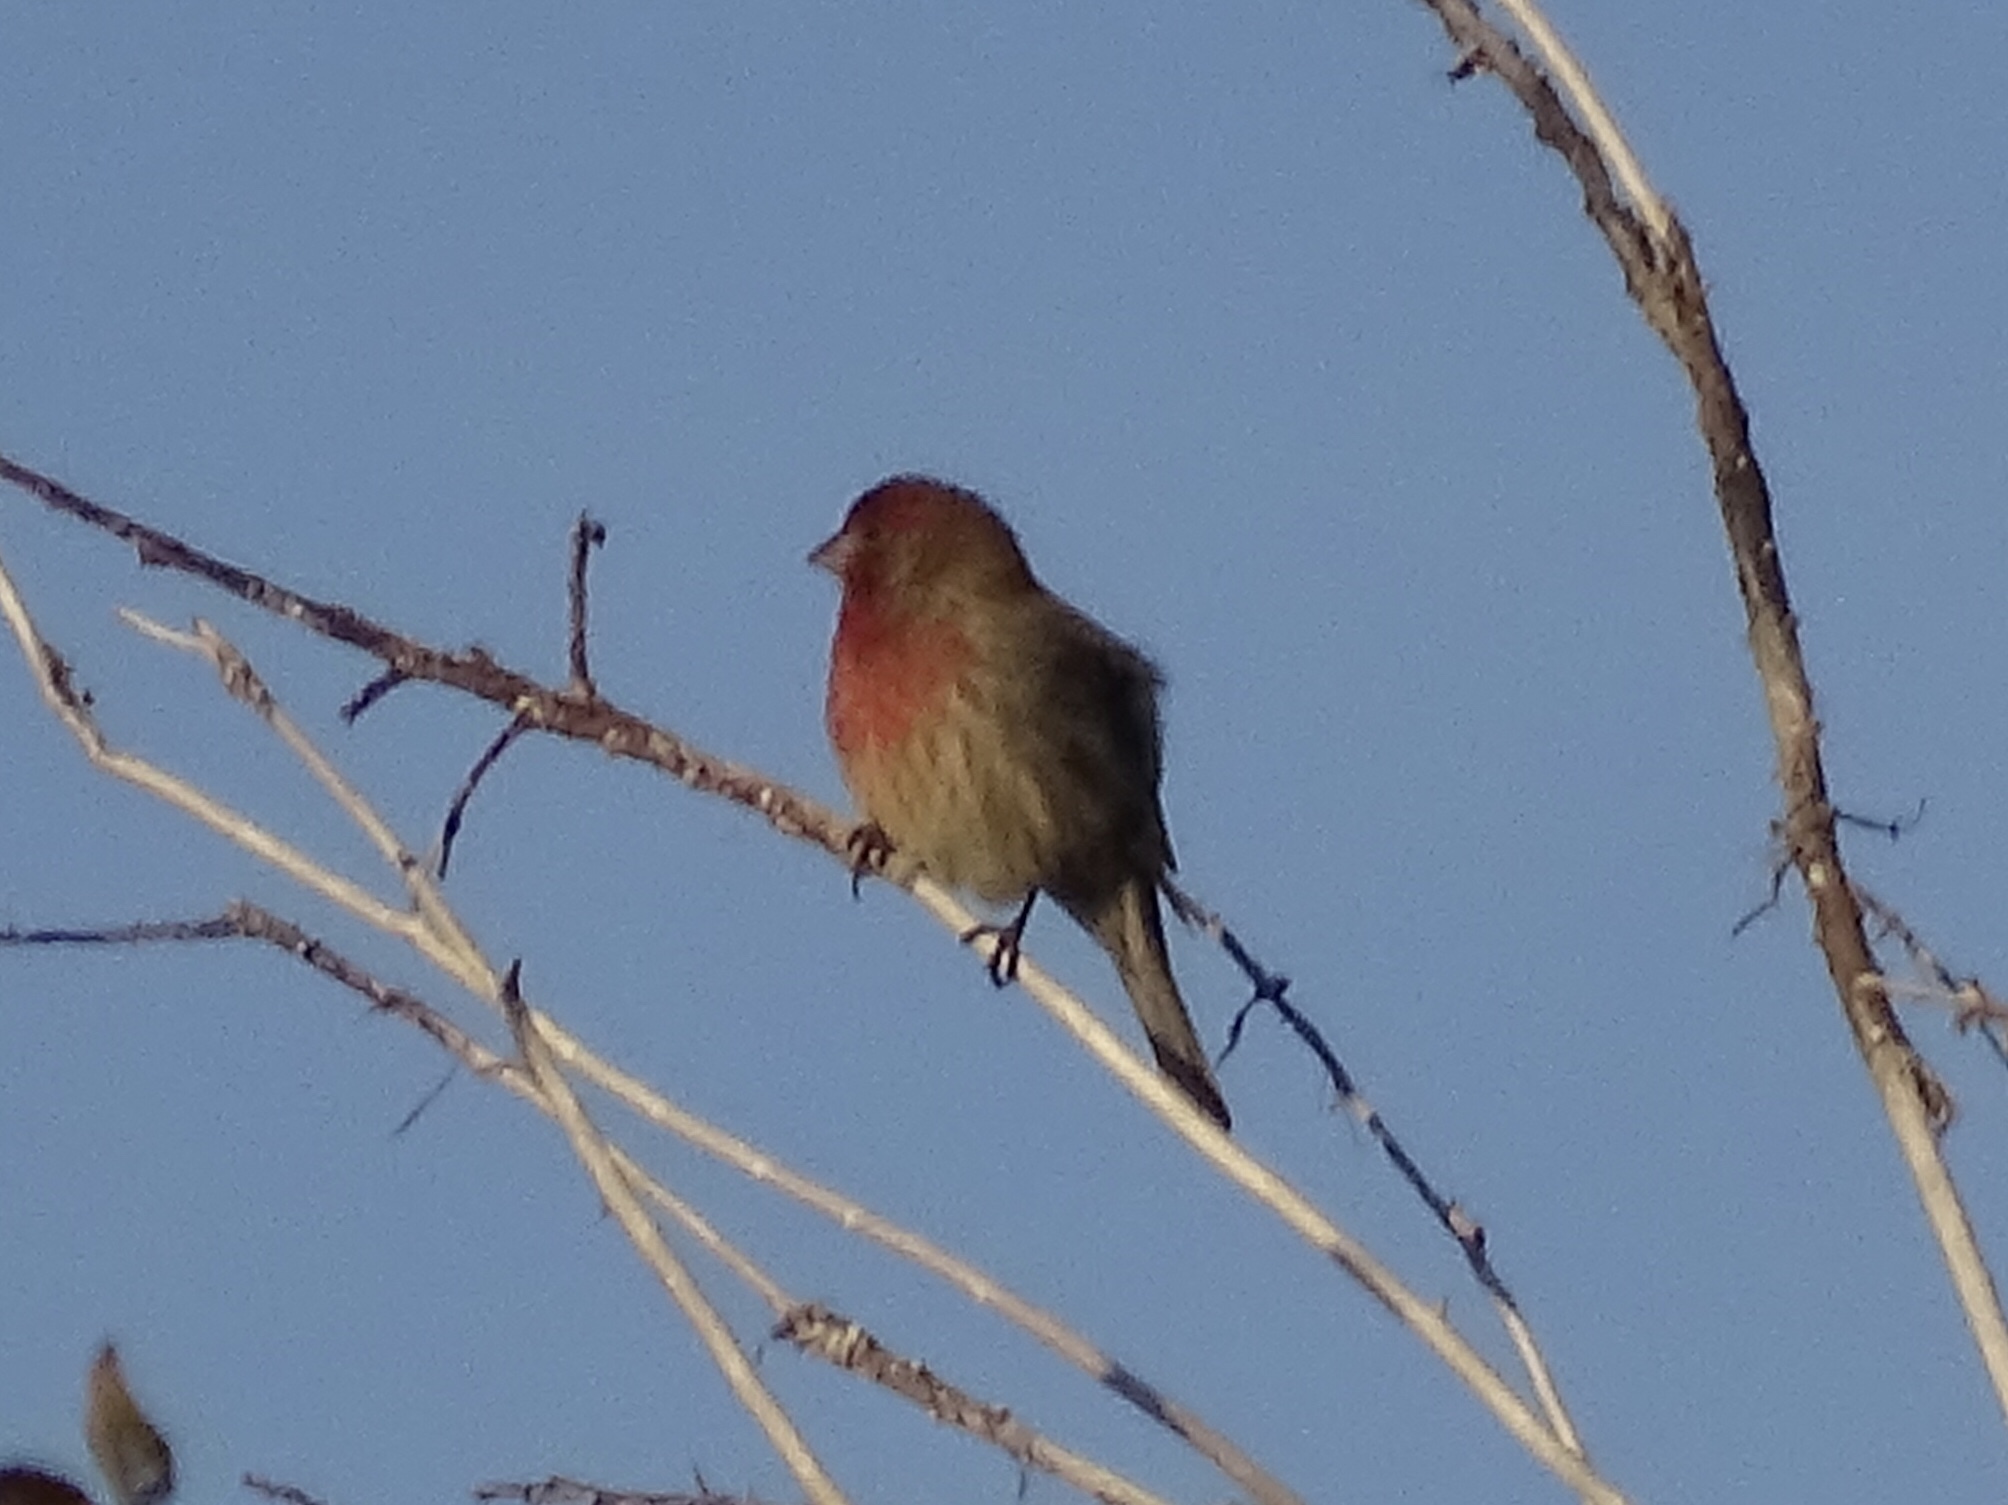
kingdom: Animalia
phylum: Chordata
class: Aves
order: Passeriformes
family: Fringillidae
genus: Haemorhous
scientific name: Haemorhous mexicanus
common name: House finch
